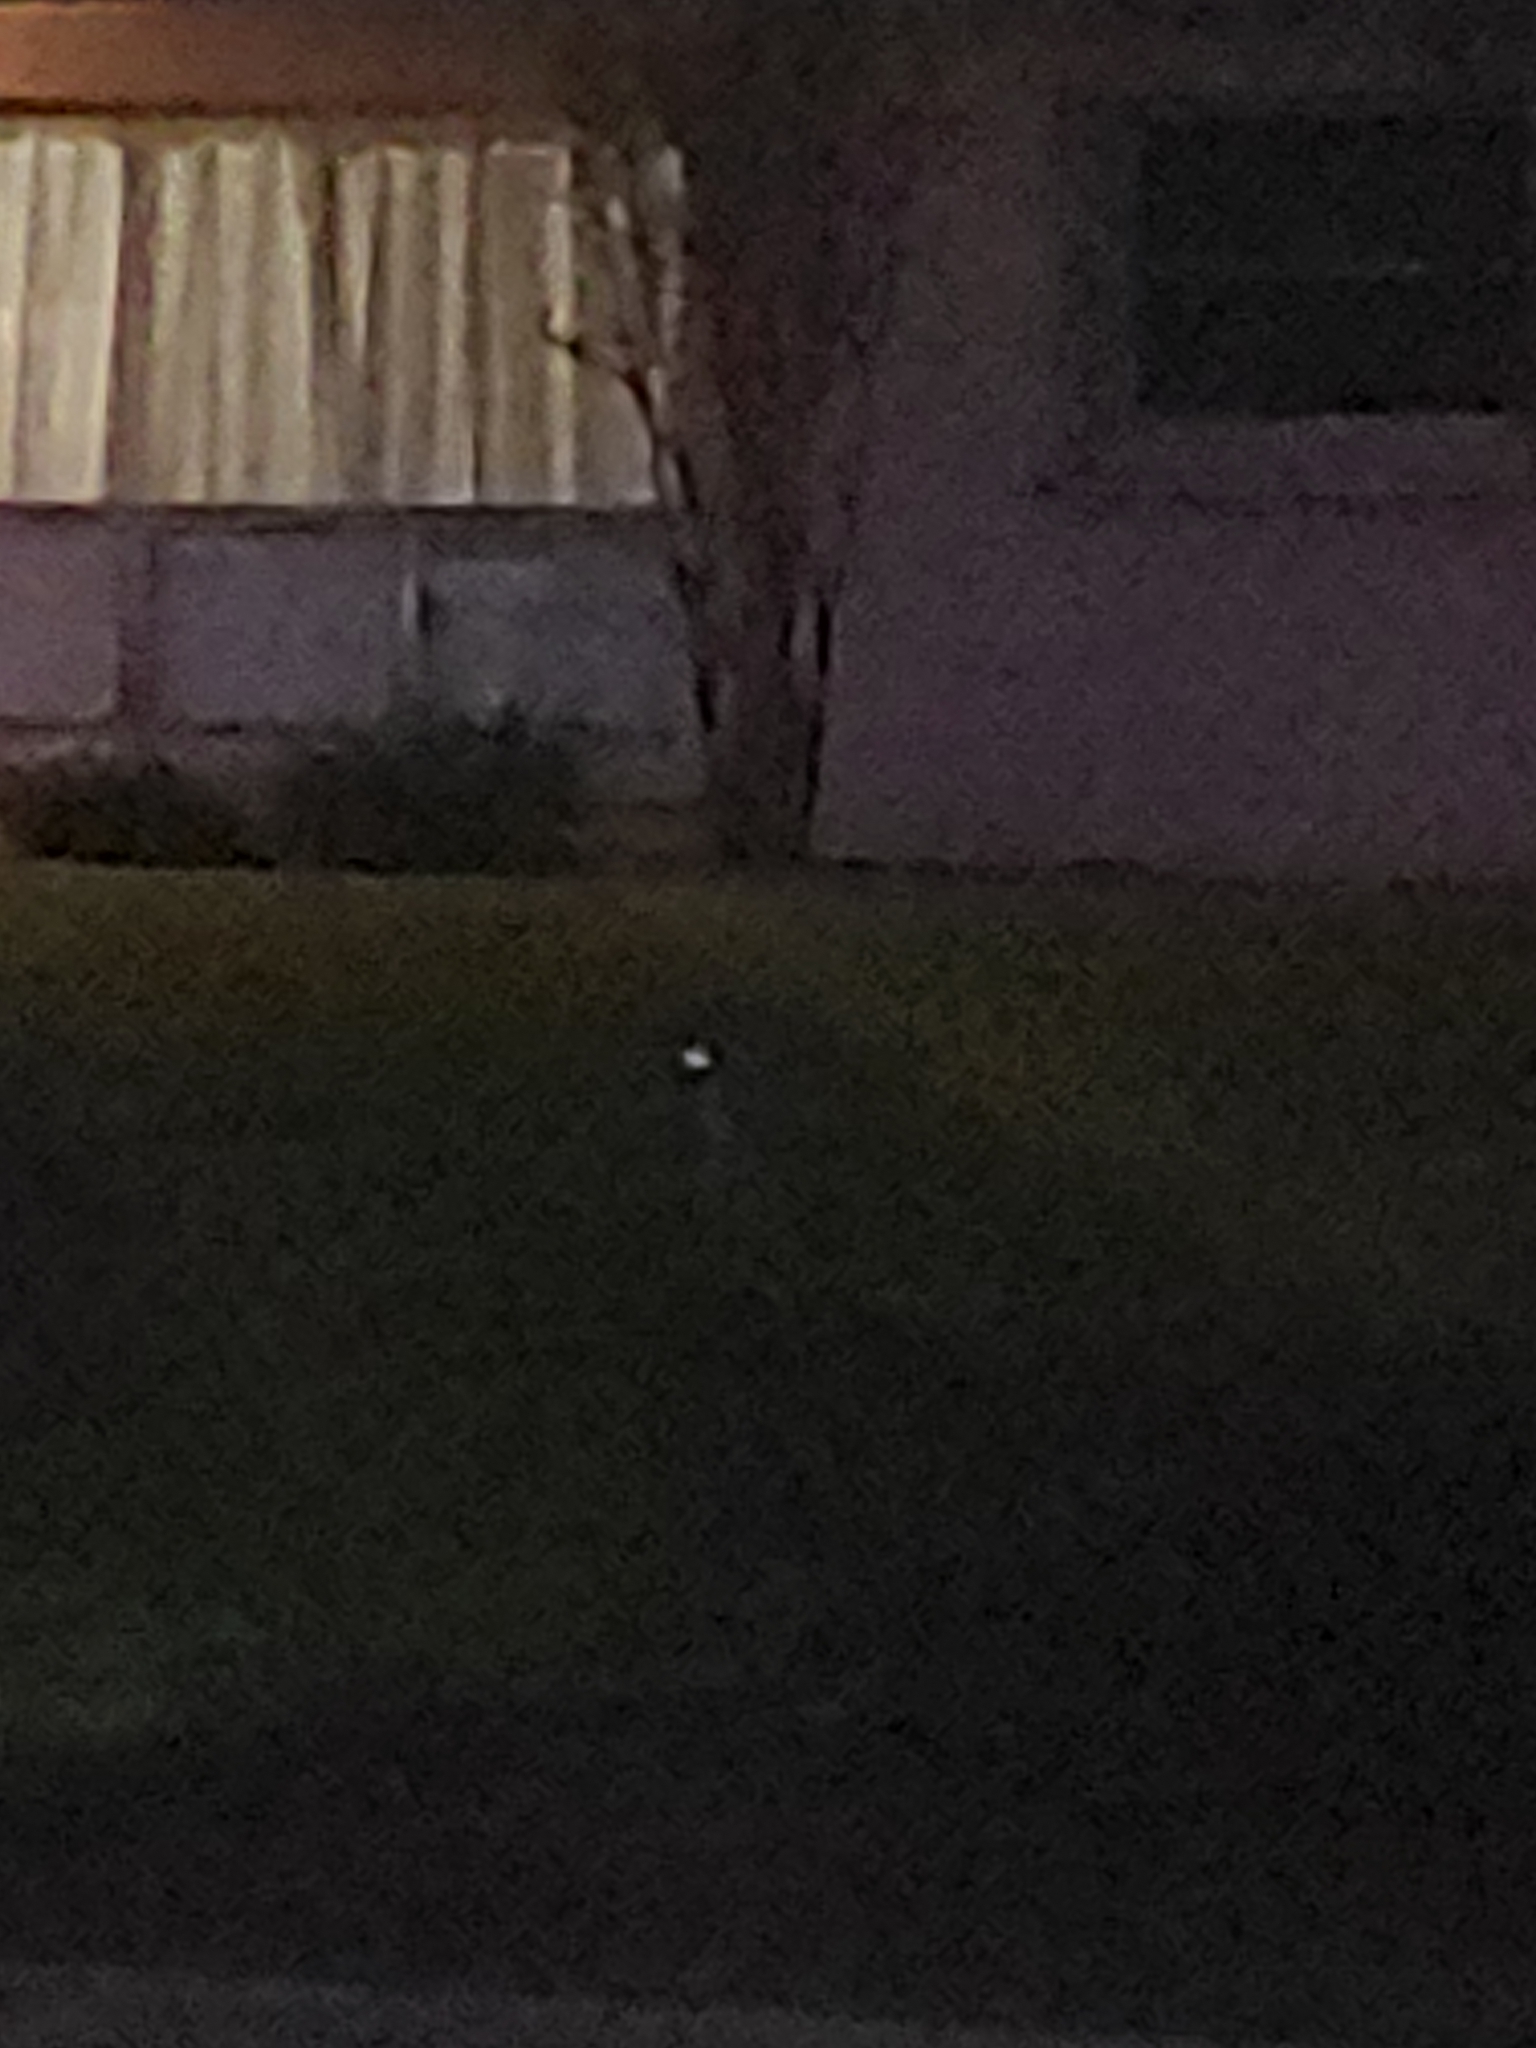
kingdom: Animalia
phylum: Chordata
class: Aves
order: Pelecaniformes
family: Ardeidae
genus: Nyctanassa
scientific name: Nyctanassa violacea
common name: Yellow-crowned night heron
